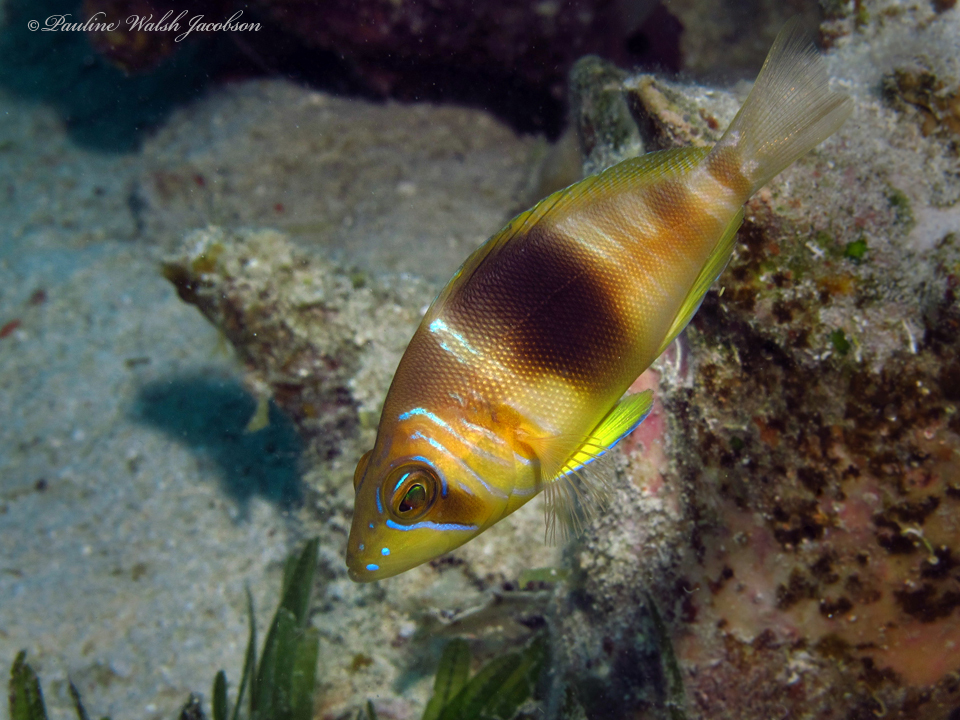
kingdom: Animalia
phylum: Chordata
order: Perciformes
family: Serranidae
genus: Hypoplectrus
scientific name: Hypoplectrus puella
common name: Barred hamlet
